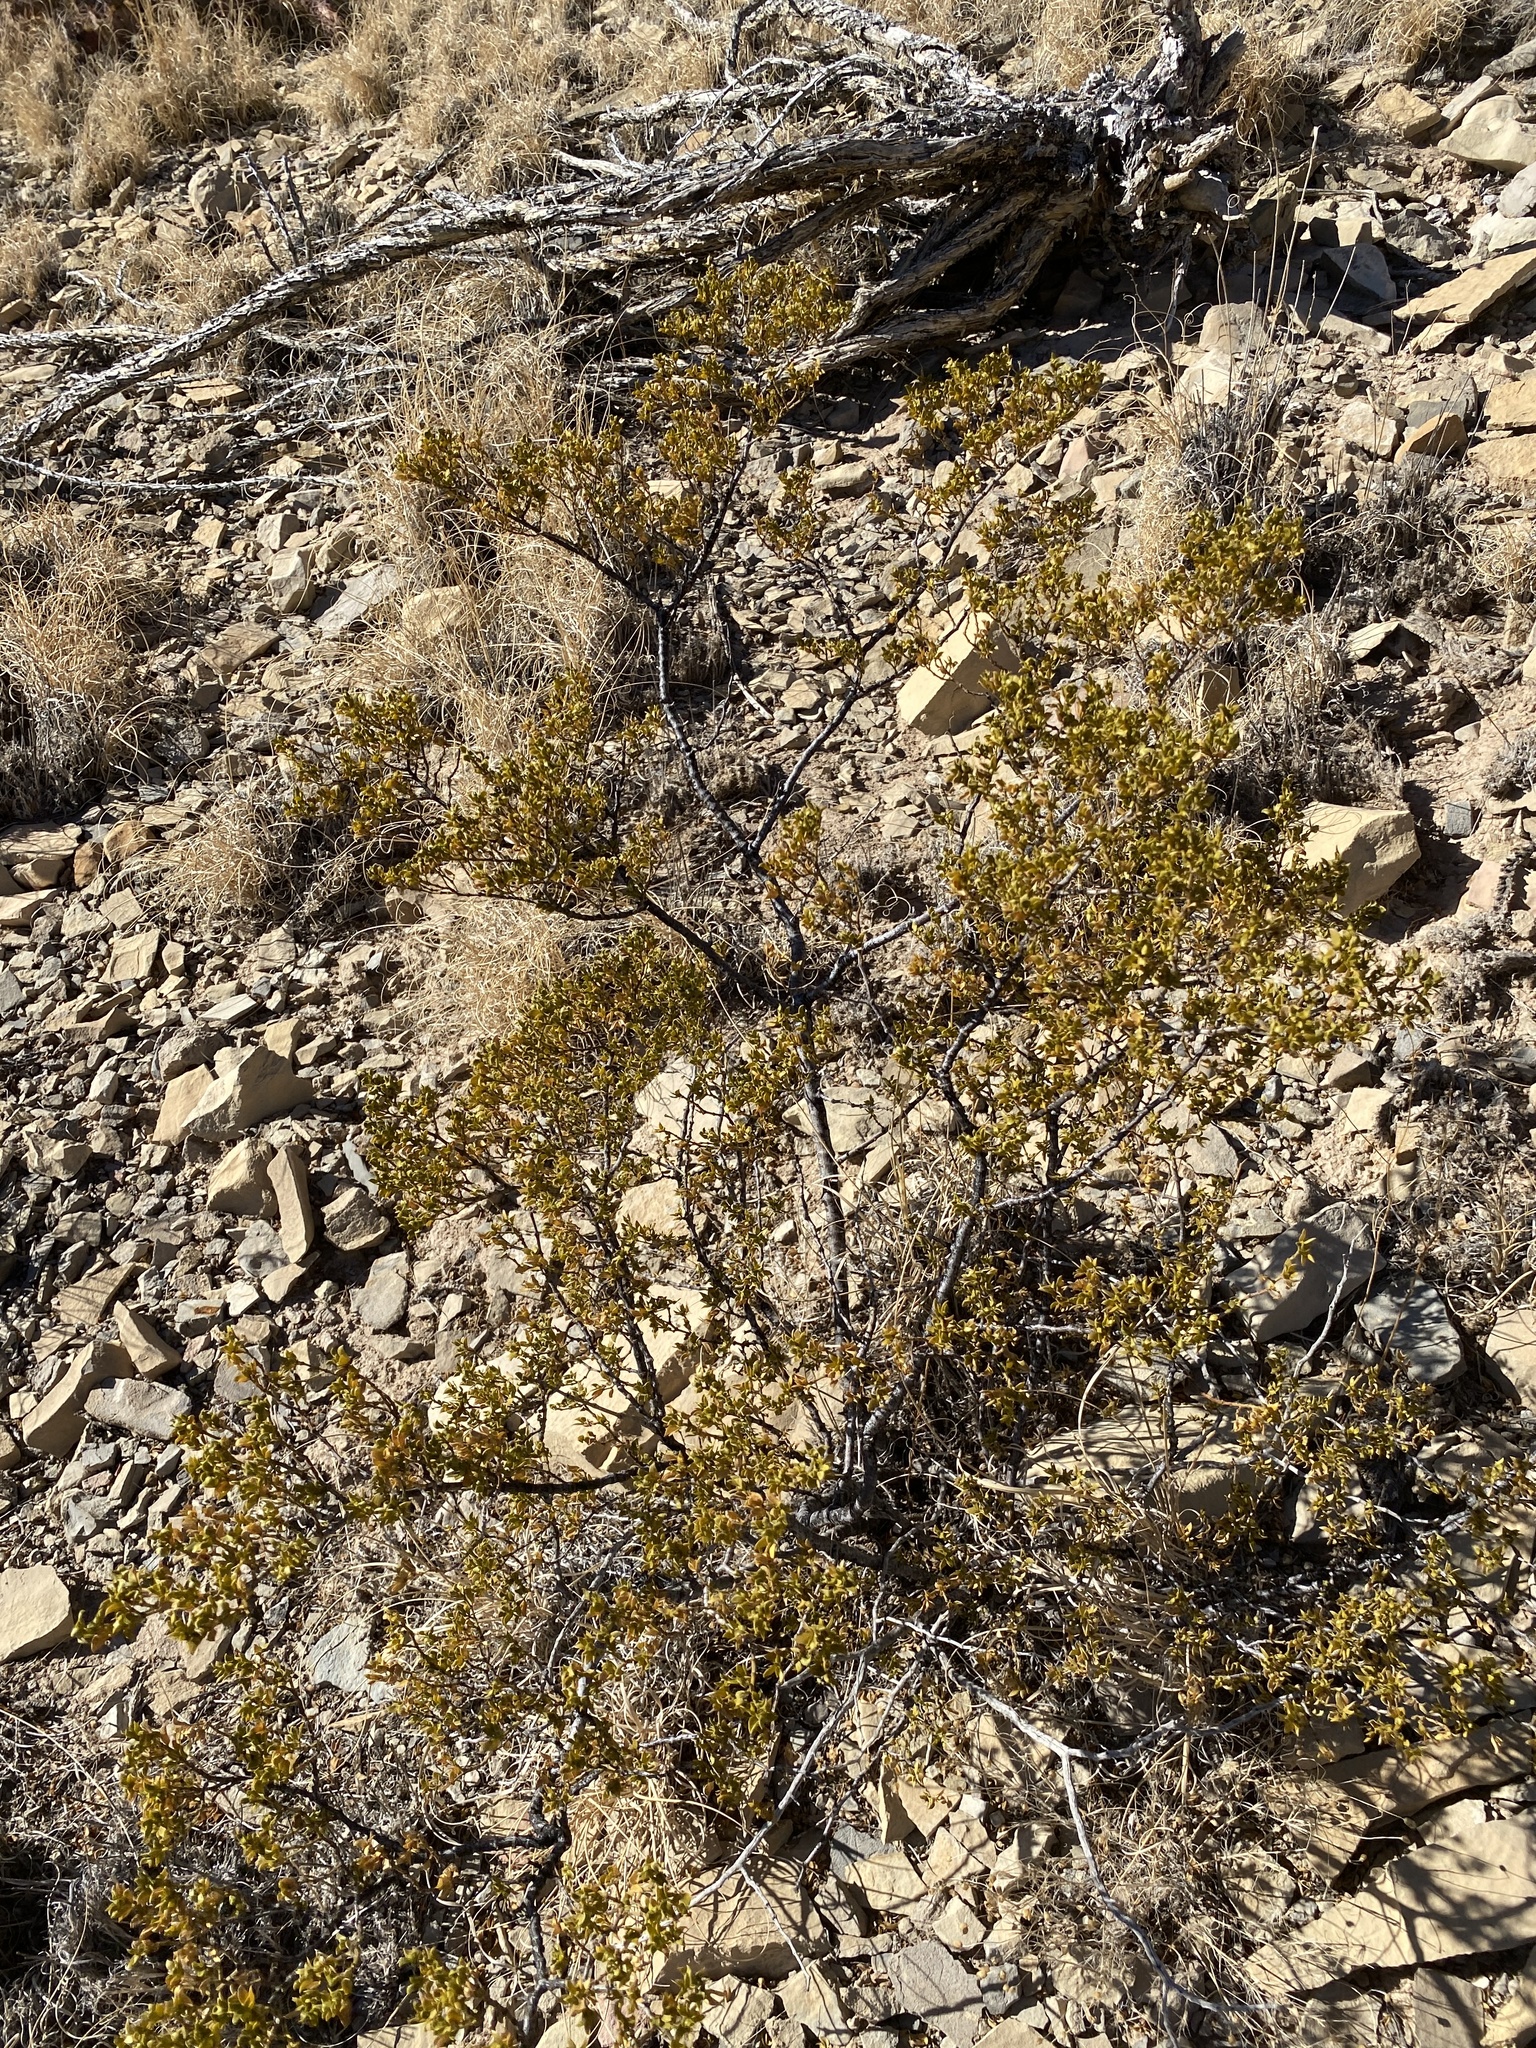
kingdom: Plantae
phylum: Tracheophyta
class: Magnoliopsida
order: Zygophyllales
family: Zygophyllaceae
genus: Larrea
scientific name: Larrea tridentata
